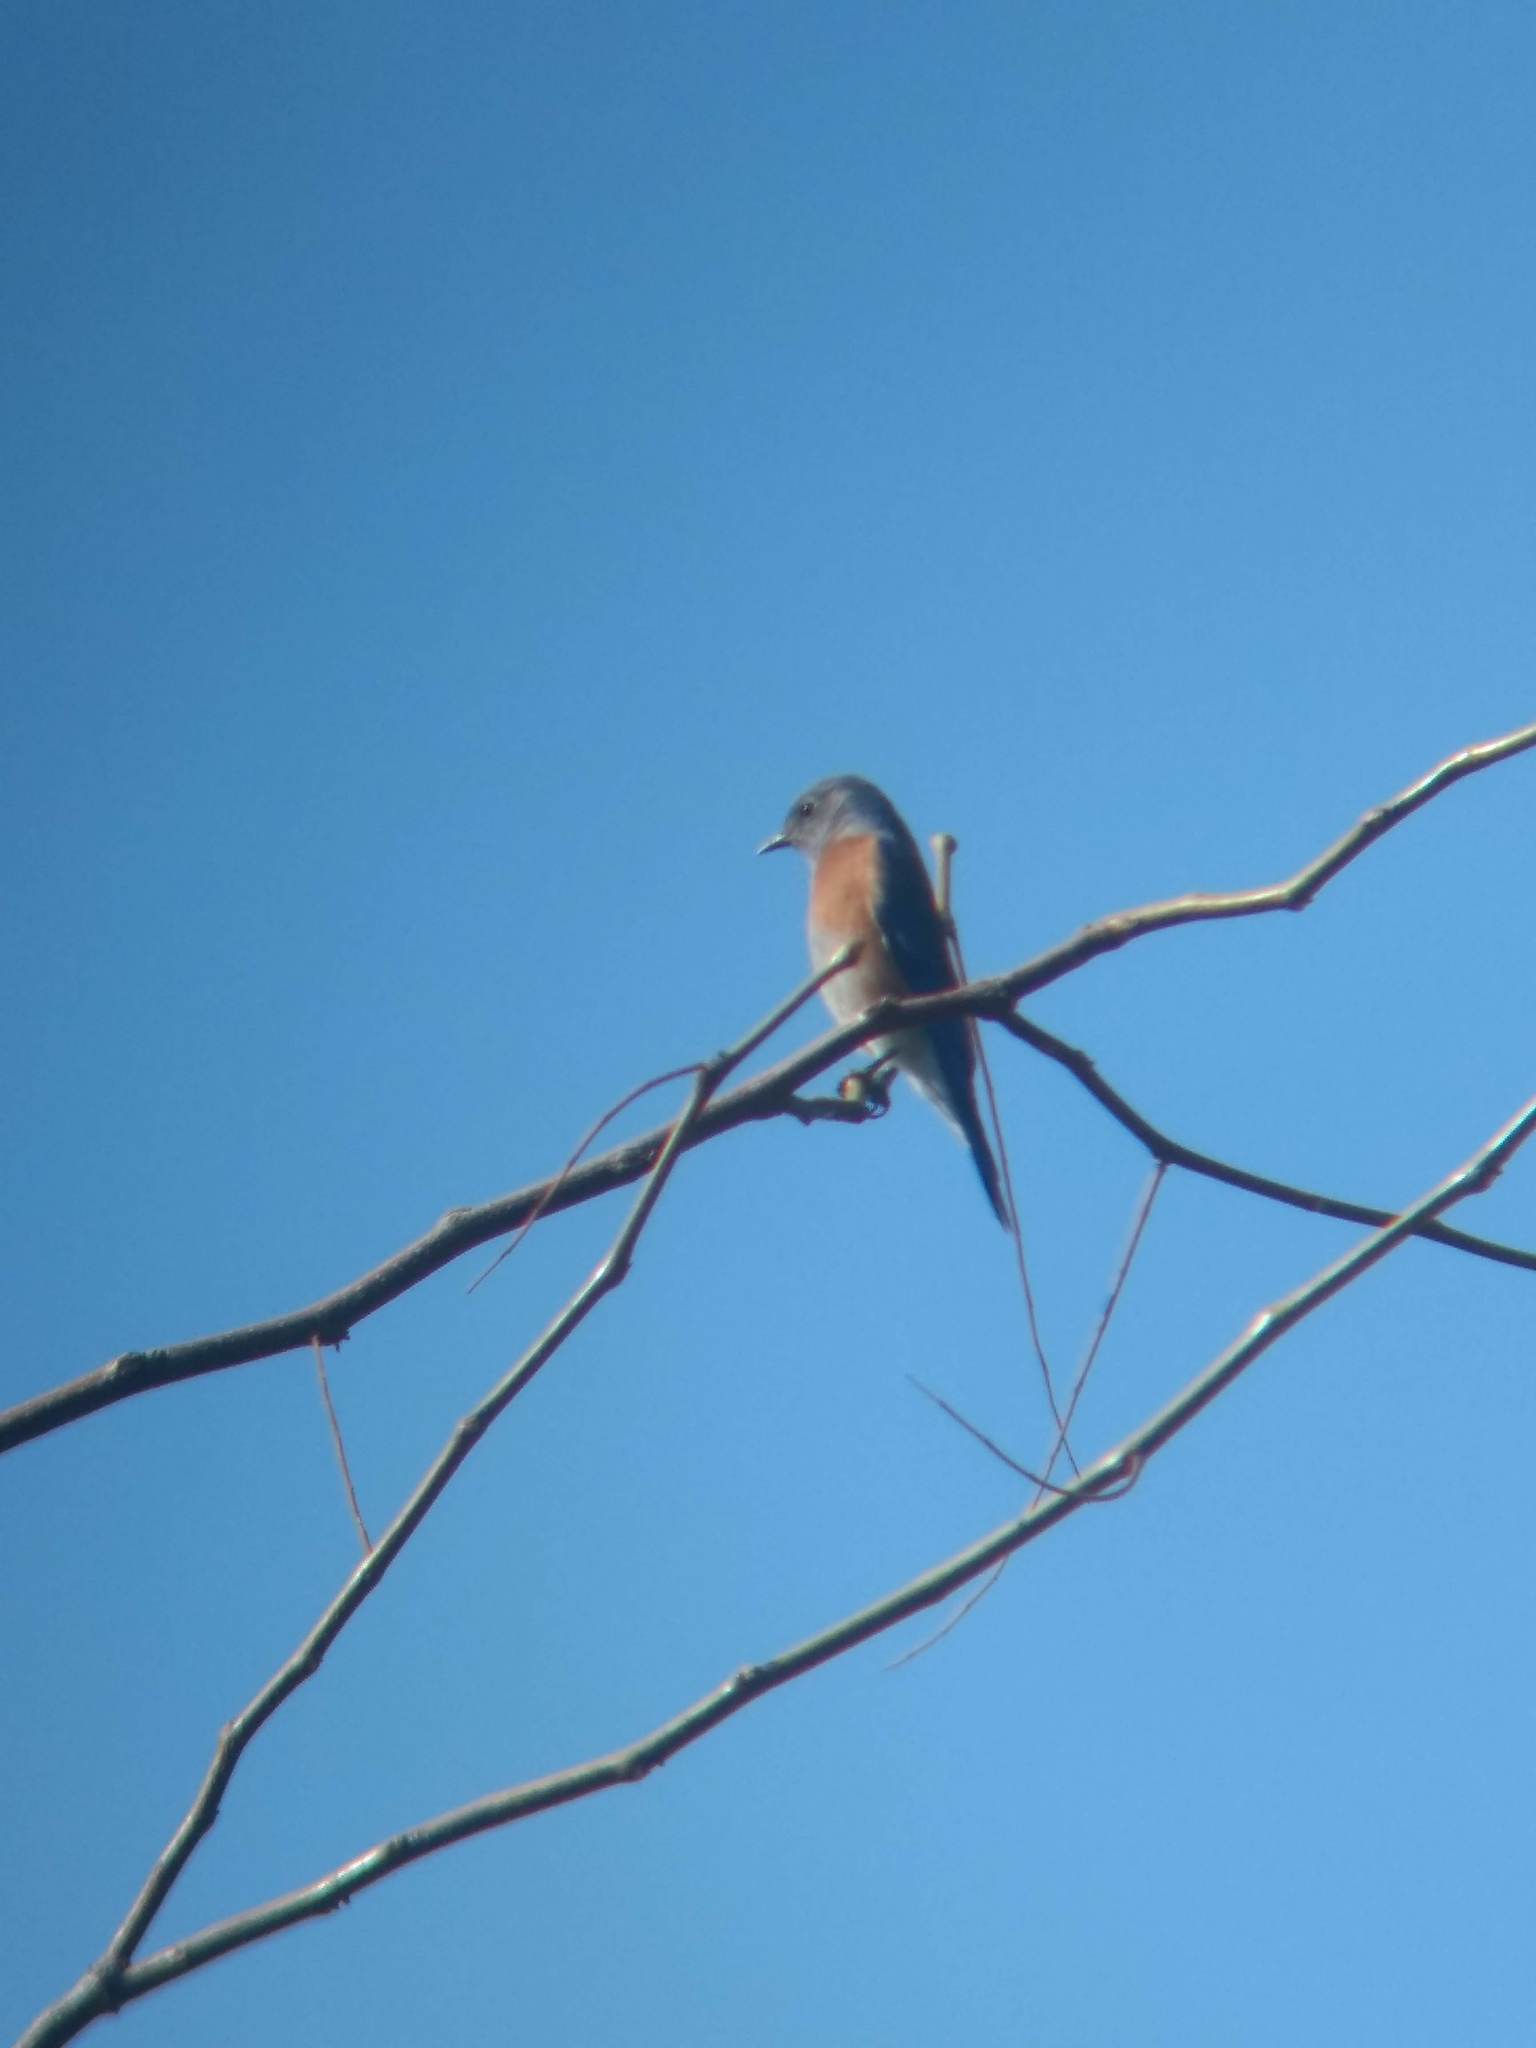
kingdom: Animalia
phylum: Chordata
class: Aves
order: Passeriformes
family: Turdidae
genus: Sialia
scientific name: Sialia mexicana
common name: Western bluebird
